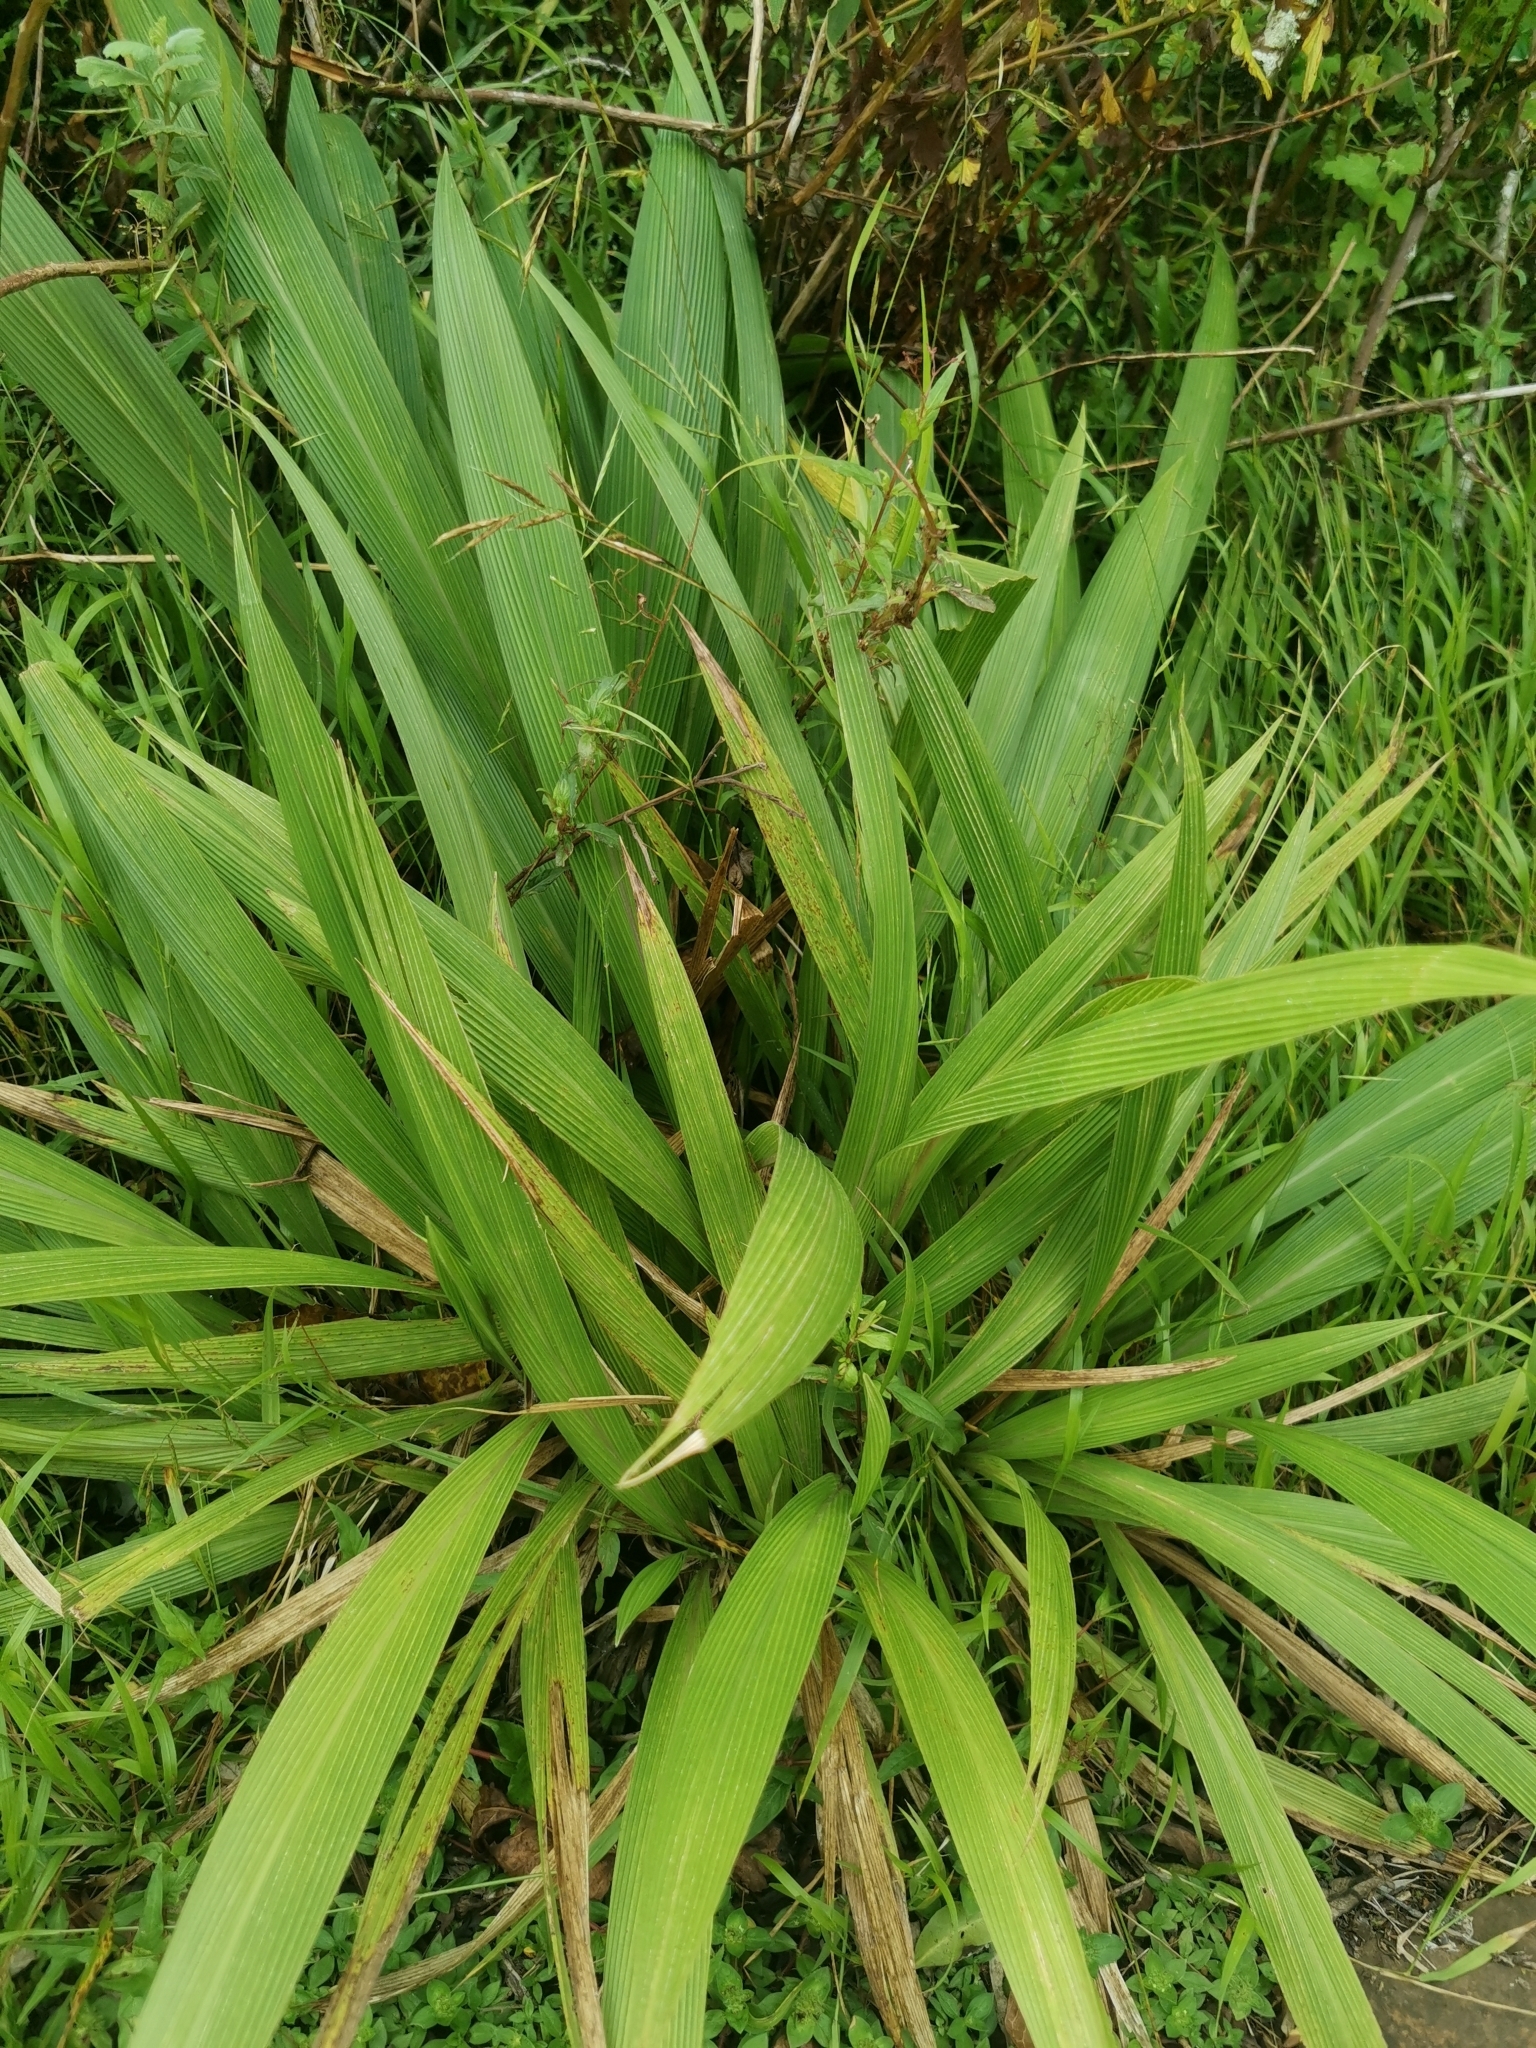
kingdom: Plantae
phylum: Tracheophyta
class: Liliopsida
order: Poales
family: Poaceae
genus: Setaria
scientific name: Setaria megaphylla
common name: Bigleaf bristlegrass
